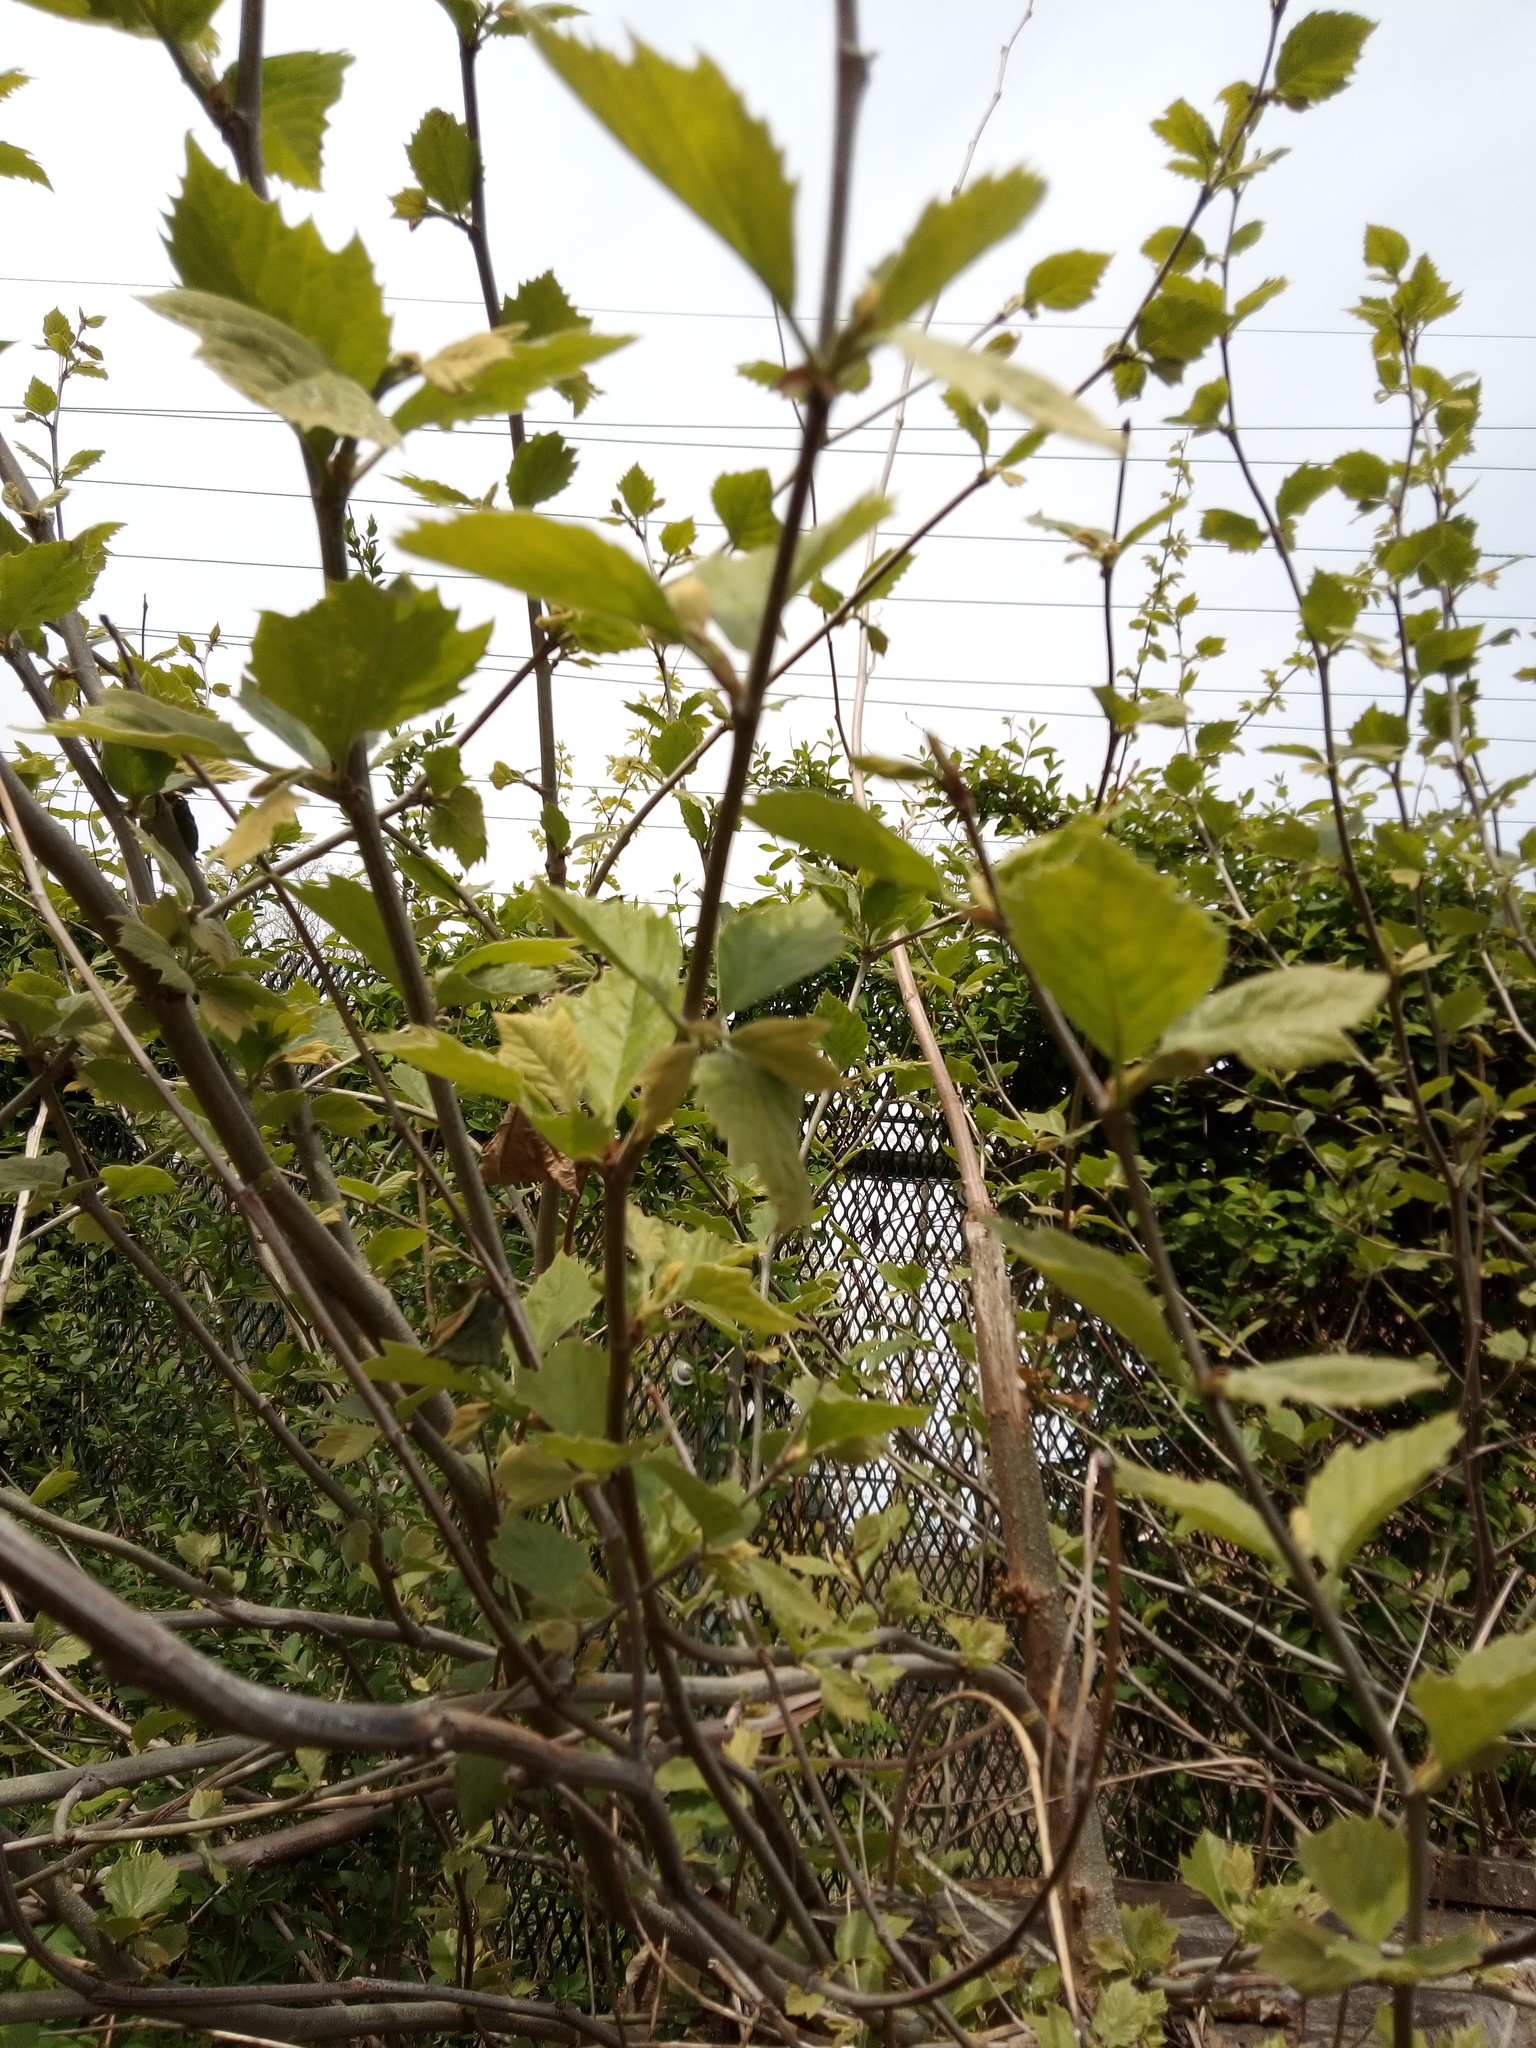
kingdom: Plantae
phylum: Tracheophyta
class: Magnoliopsida
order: Proteales
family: Platanaceae
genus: Platanus
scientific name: Platanus hispanica
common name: London plane
